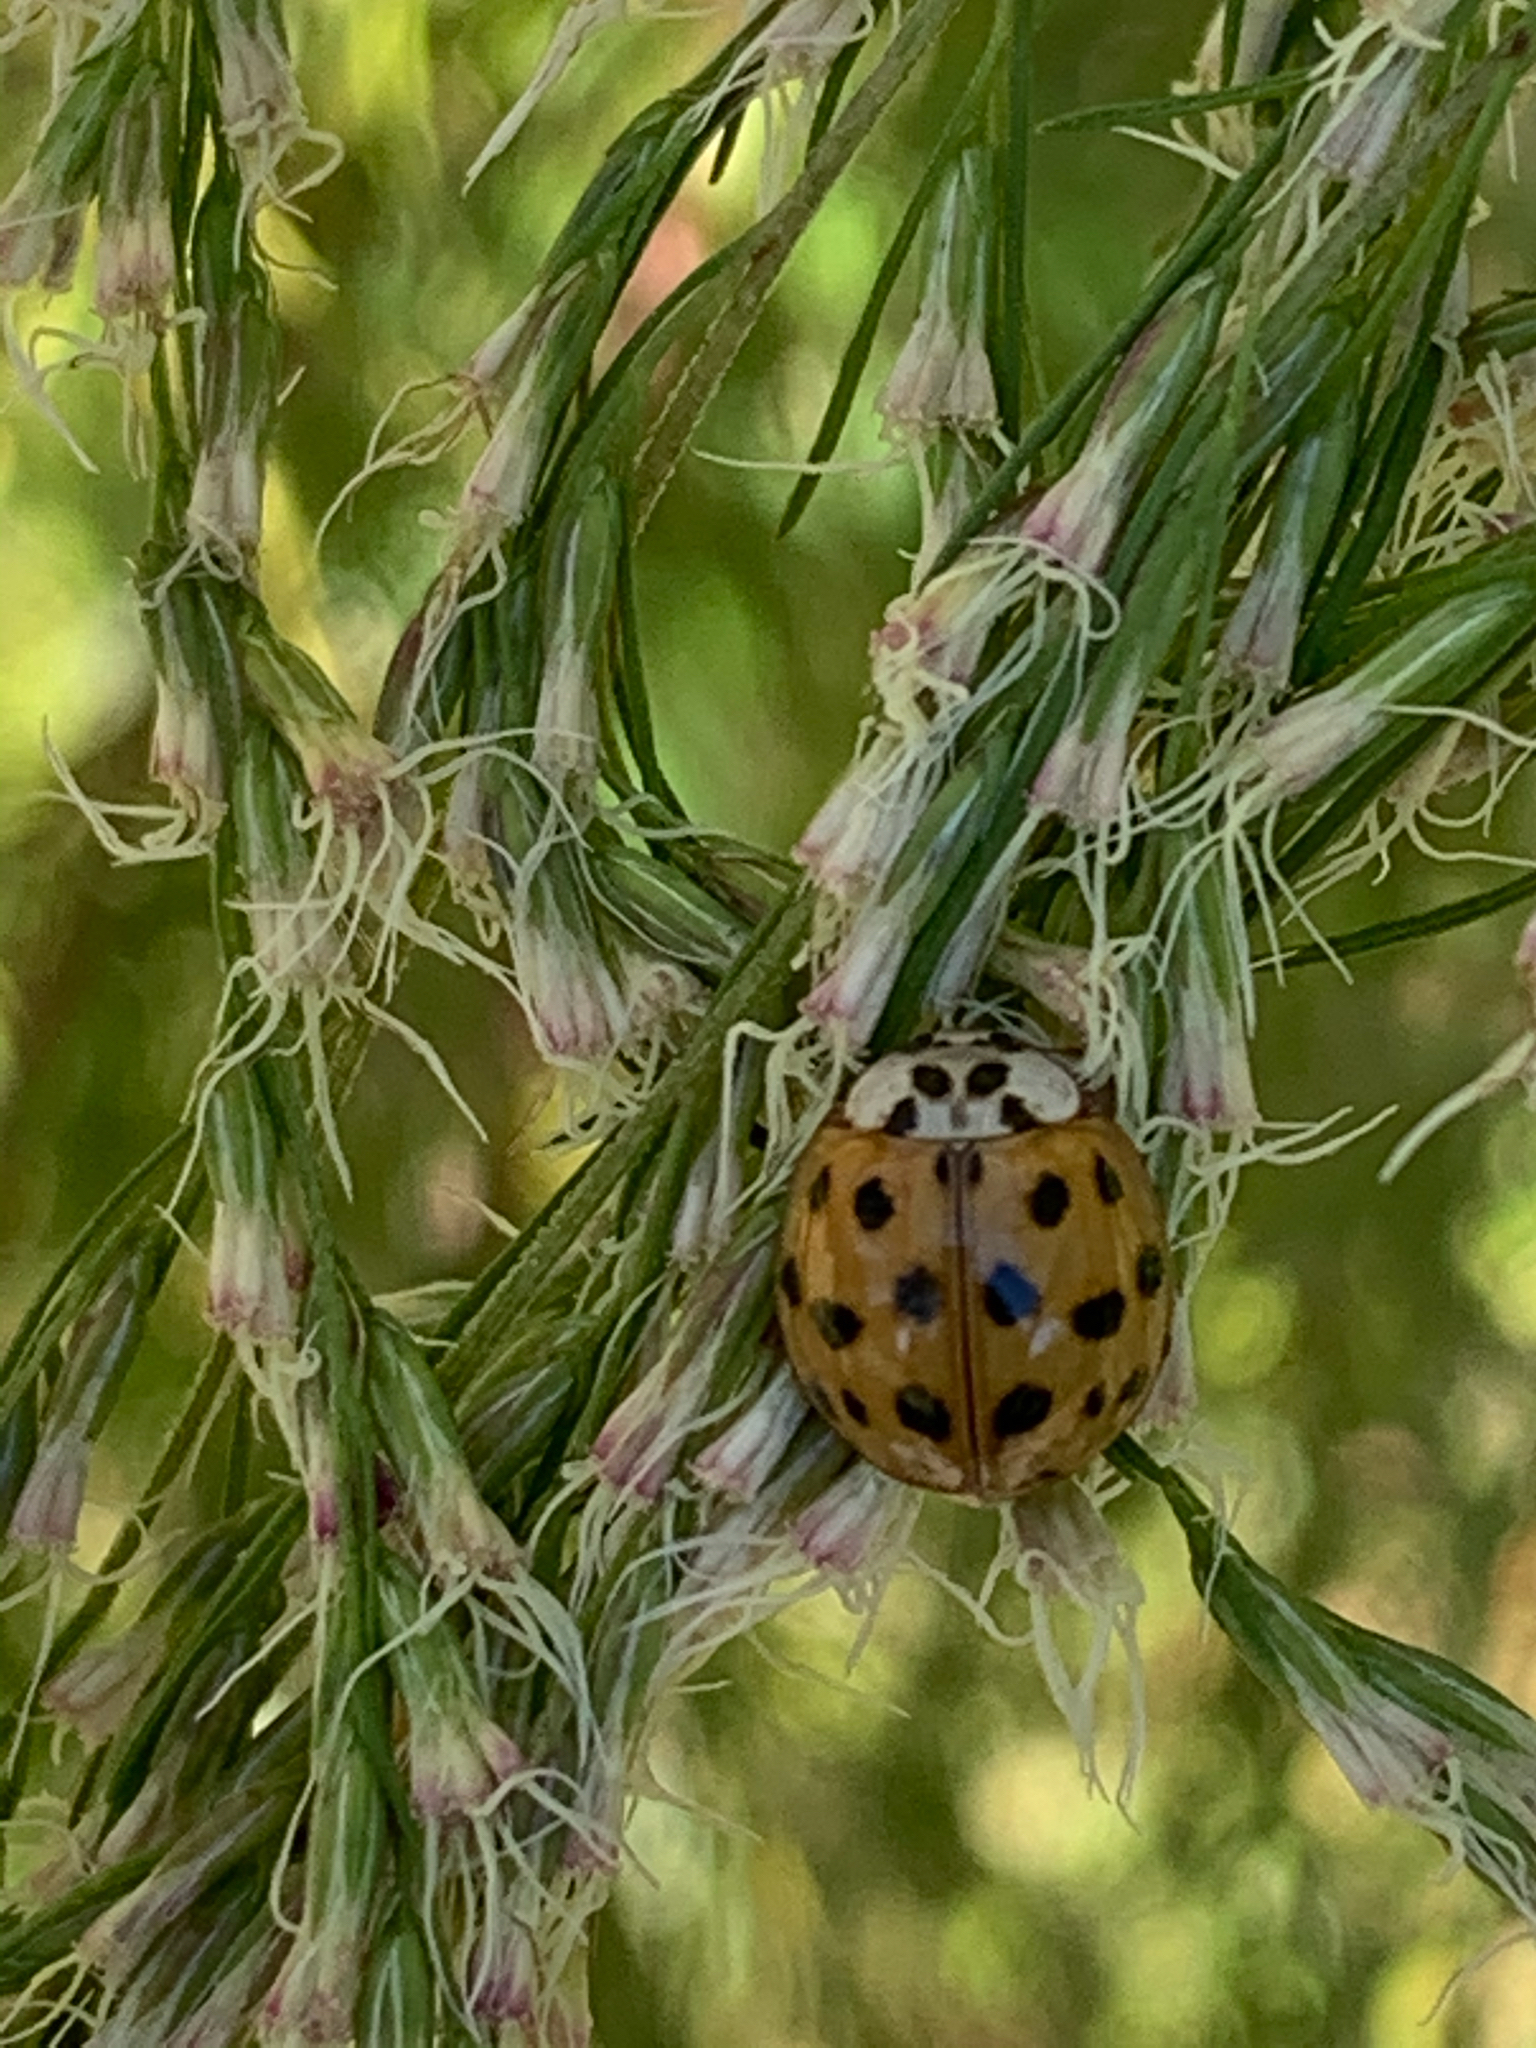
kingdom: Animalia
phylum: Arthropoda
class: Insecta
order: Coleoptera
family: Coccinellidae
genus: Harmonia
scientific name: Harmonia axyridis
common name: Harlequin ladybird
